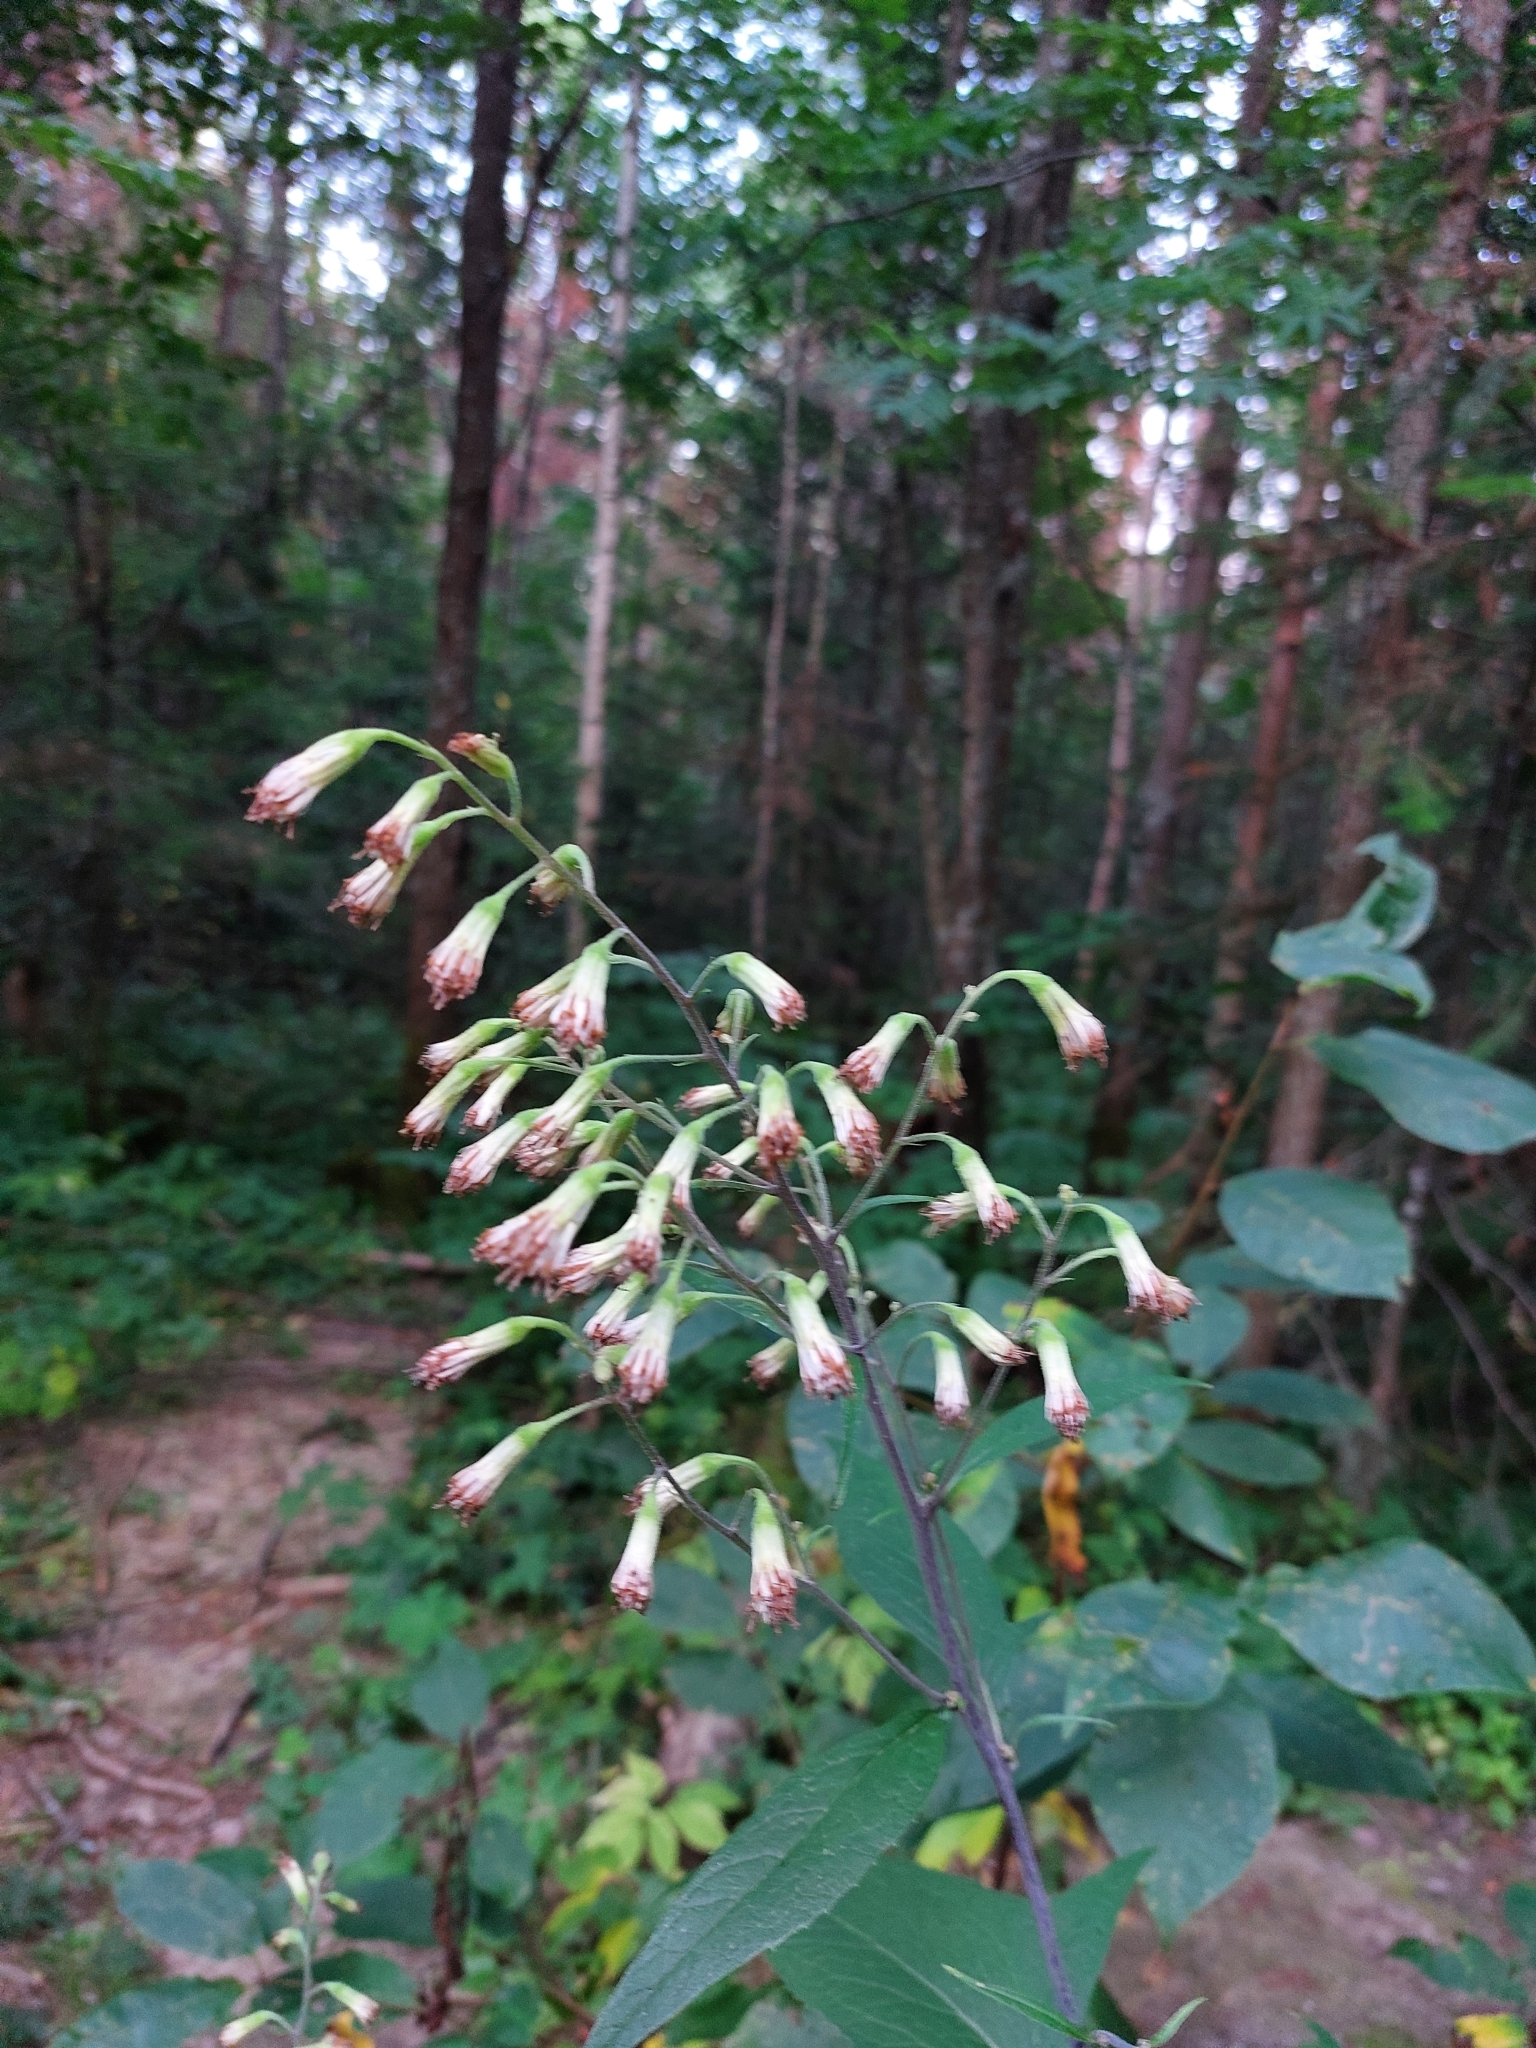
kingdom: Plantae
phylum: Tracheophyta
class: Magnoliopsida
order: Asterales
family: Asteraceae
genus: Parasenecio
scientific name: Parasenecio hastatus
